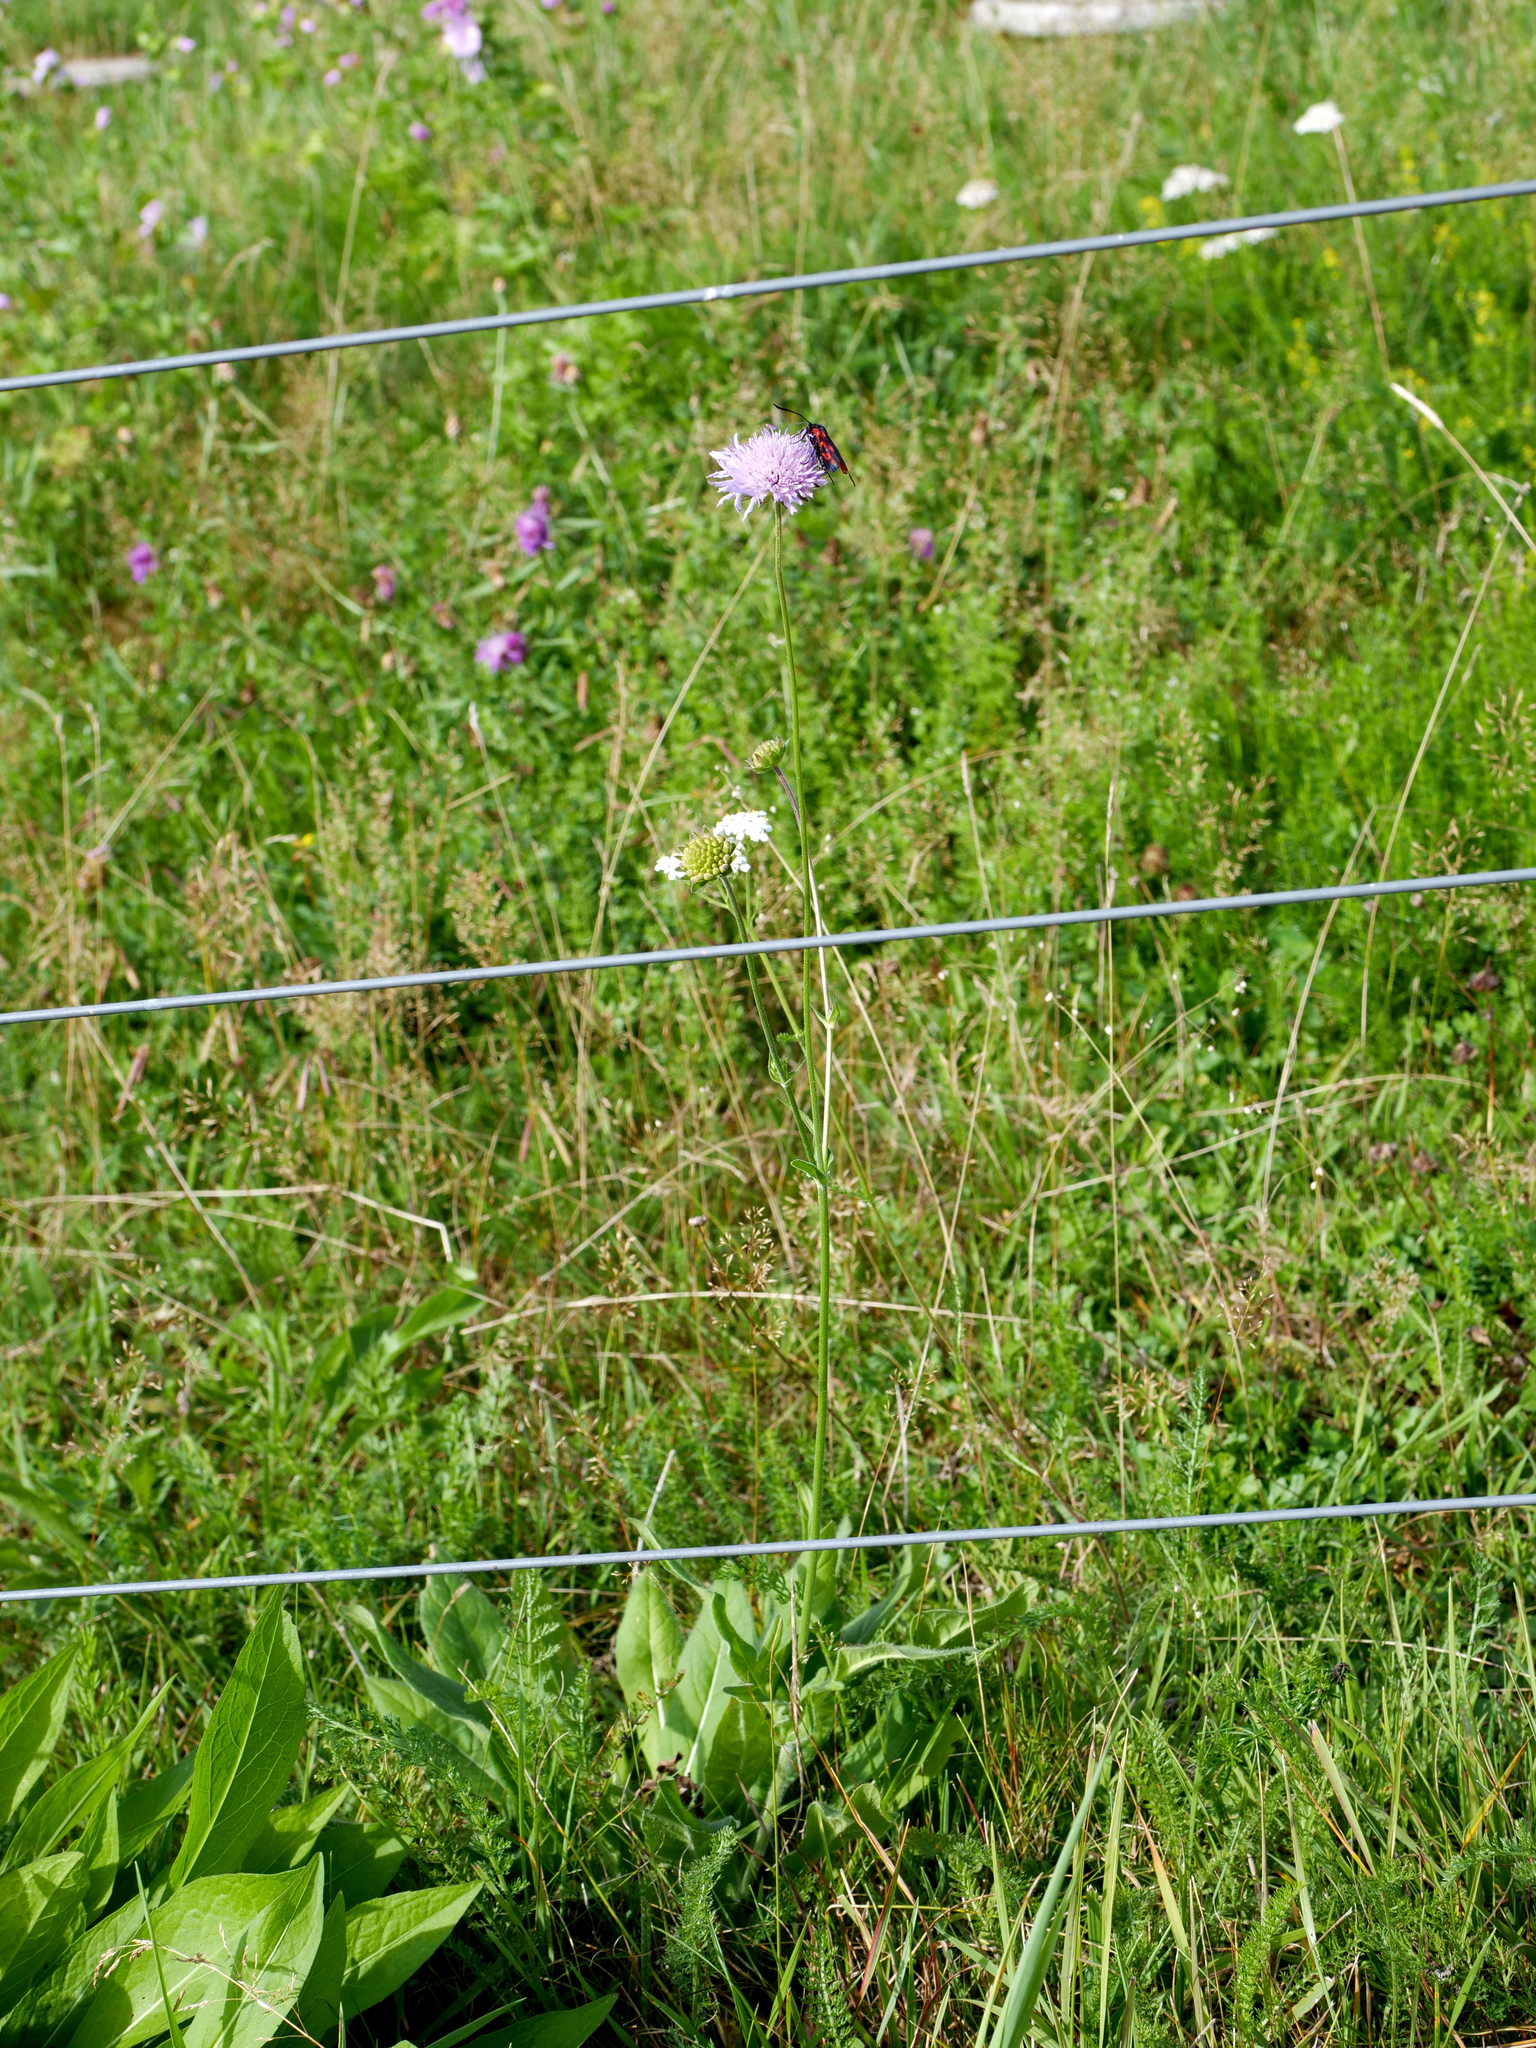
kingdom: Plantae
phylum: Tracheophyta
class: Magnoliopsida
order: Dipsacales
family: Caprifoliaceae
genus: Scabiosa
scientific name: Scabiosa columbaria
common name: Small scabious
